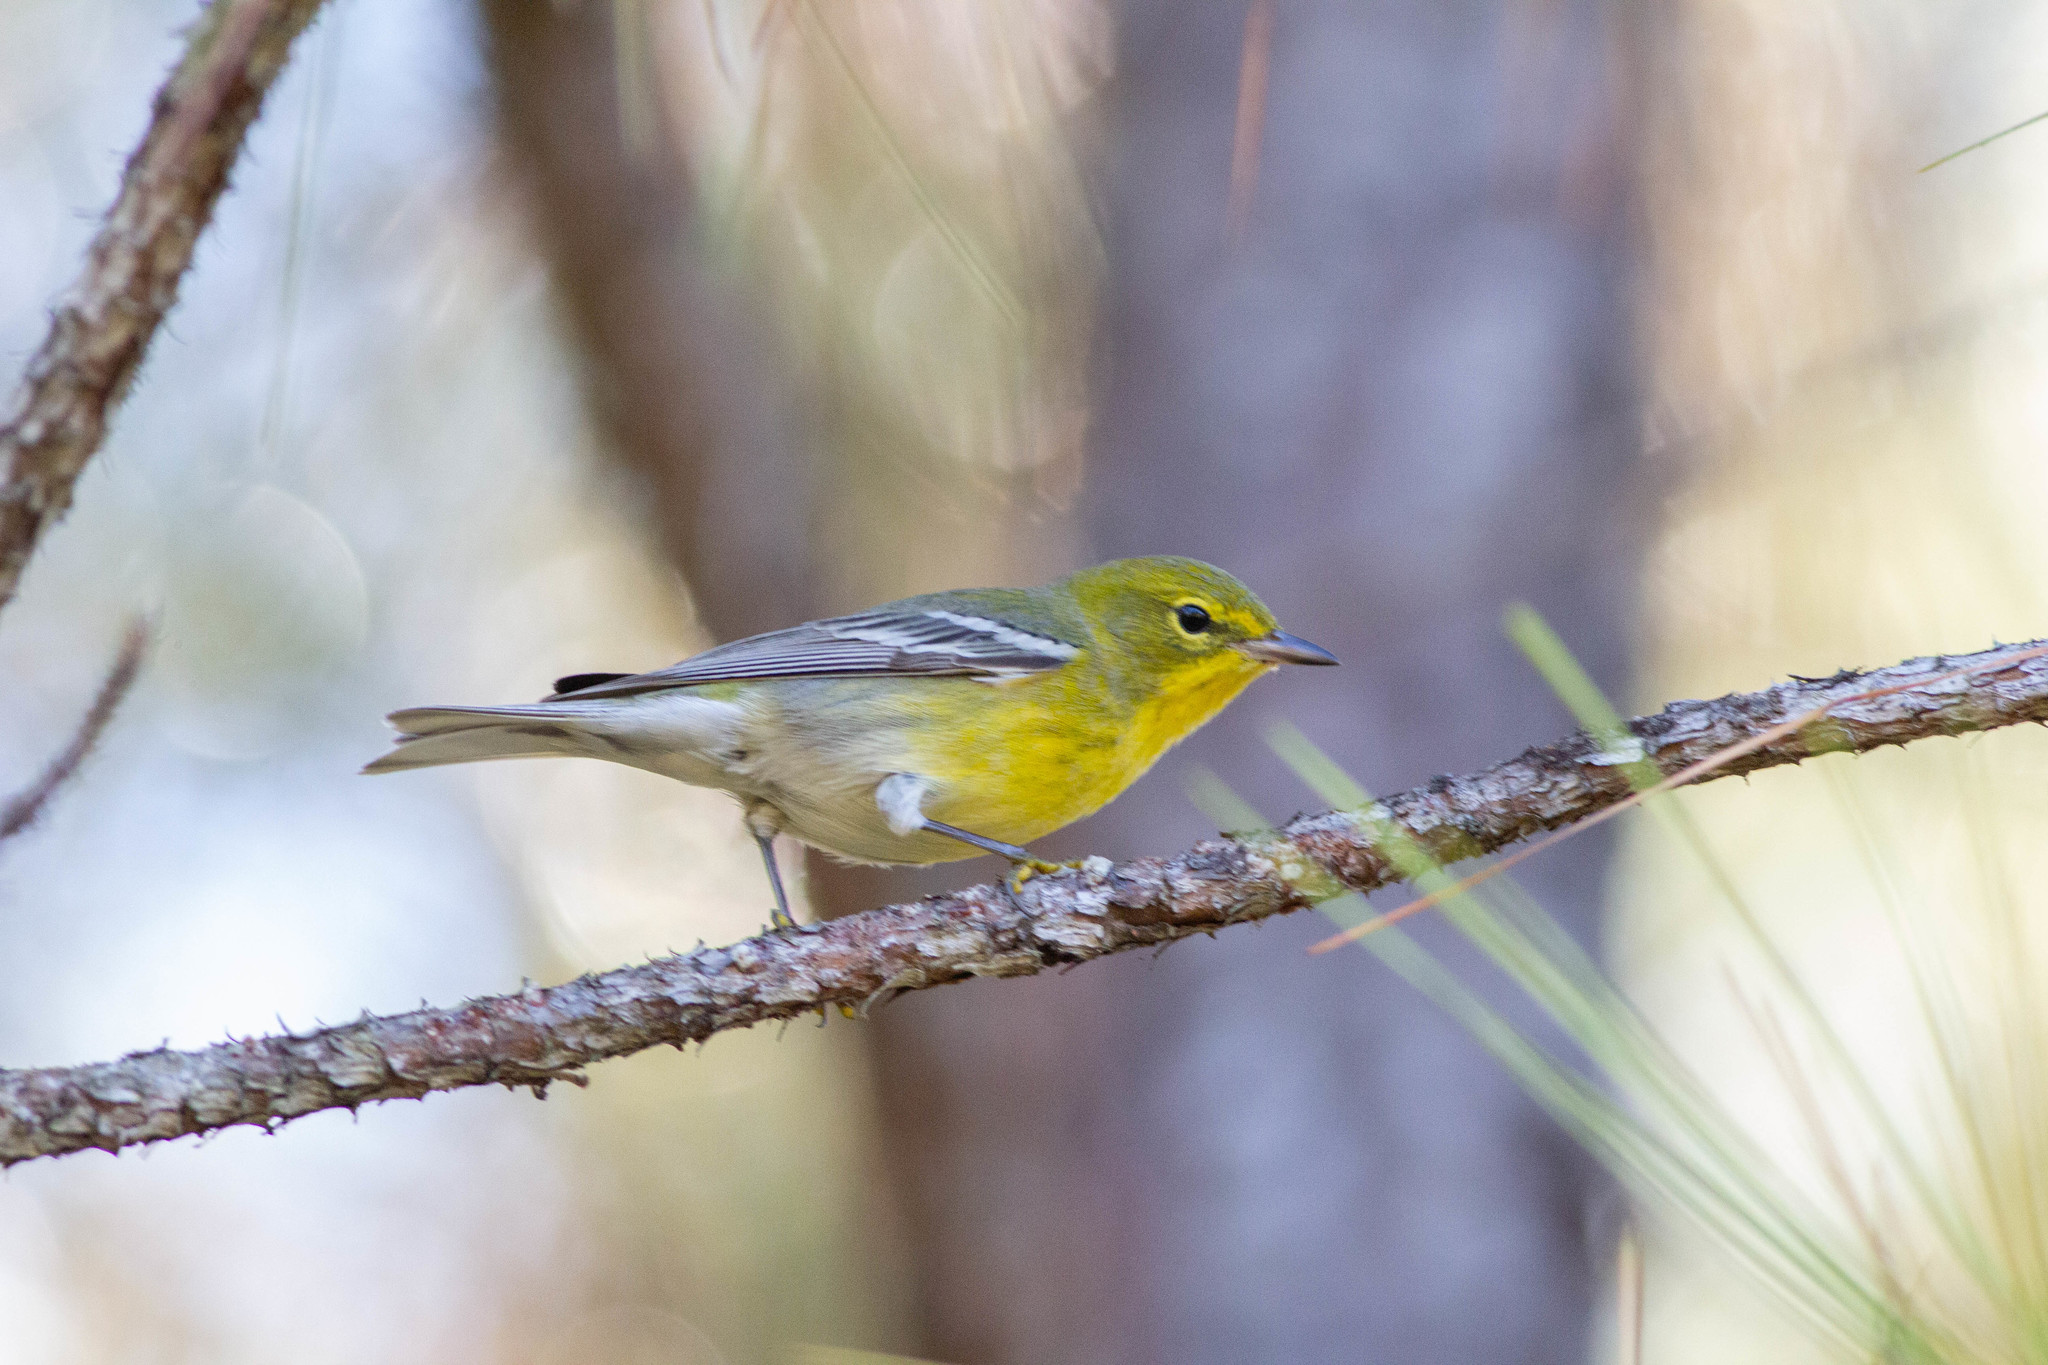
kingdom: Animalia
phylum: Chordata
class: Aves
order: Passeriformes
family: Parulidae
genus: Setophaga
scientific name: Setophaga pinus
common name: Pine warbler
